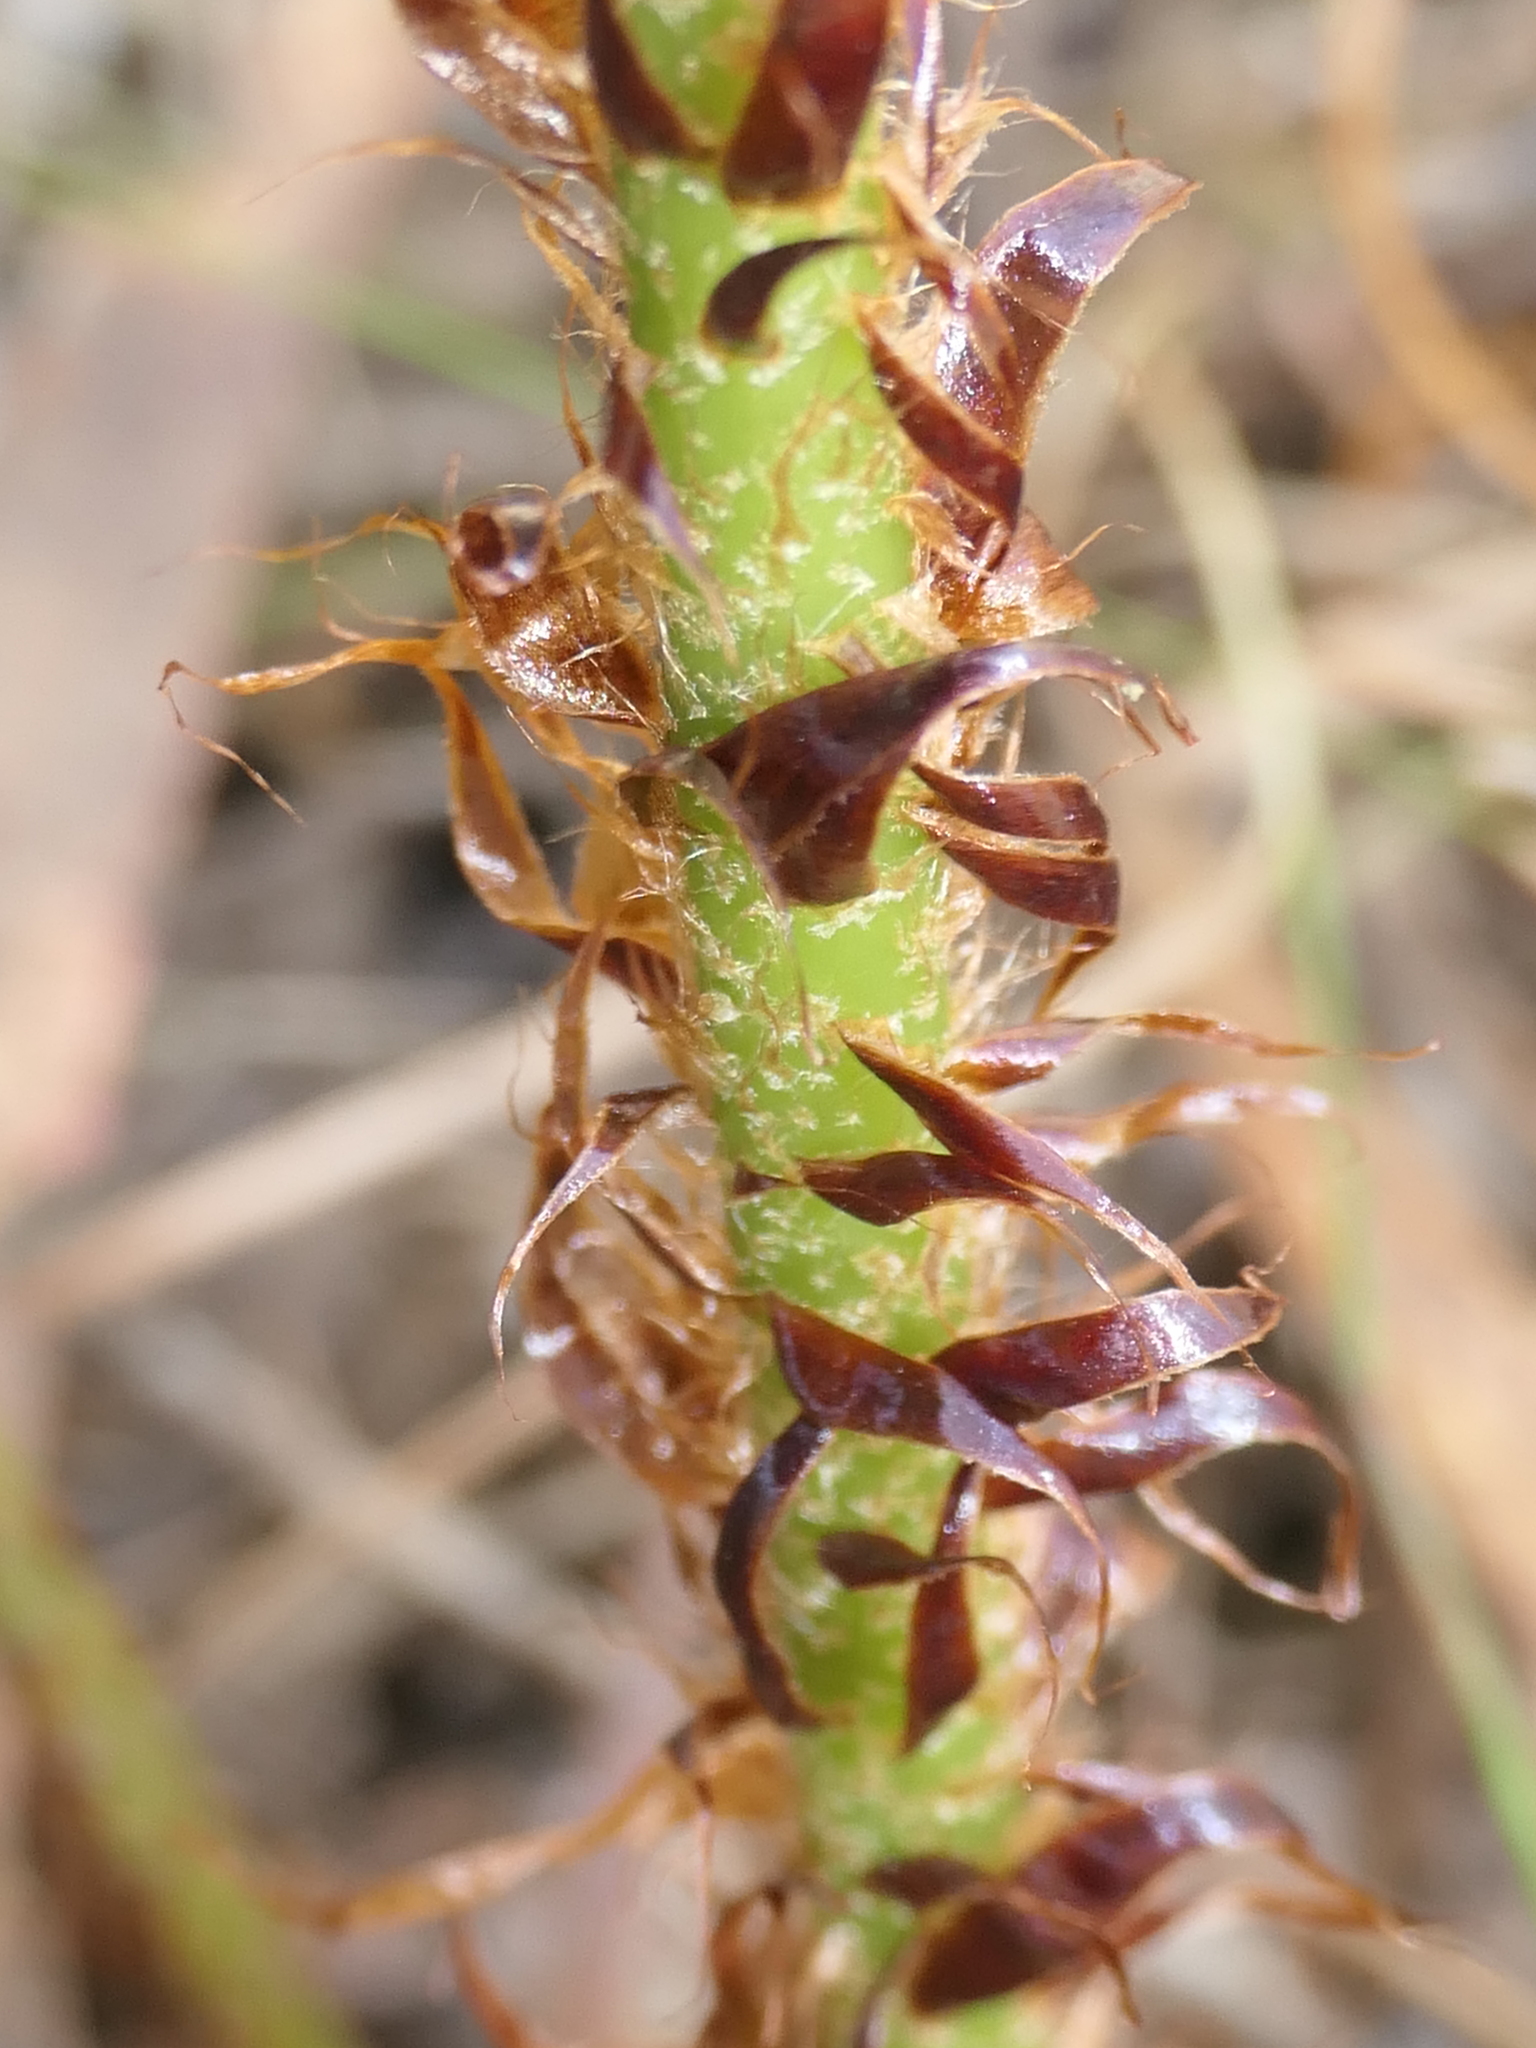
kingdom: Plantae
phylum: Tracheophyta
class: Polypodiopsida
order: Polypodiales
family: Dryopteridaceae
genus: Polystichum
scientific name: Polystichum proliferum
